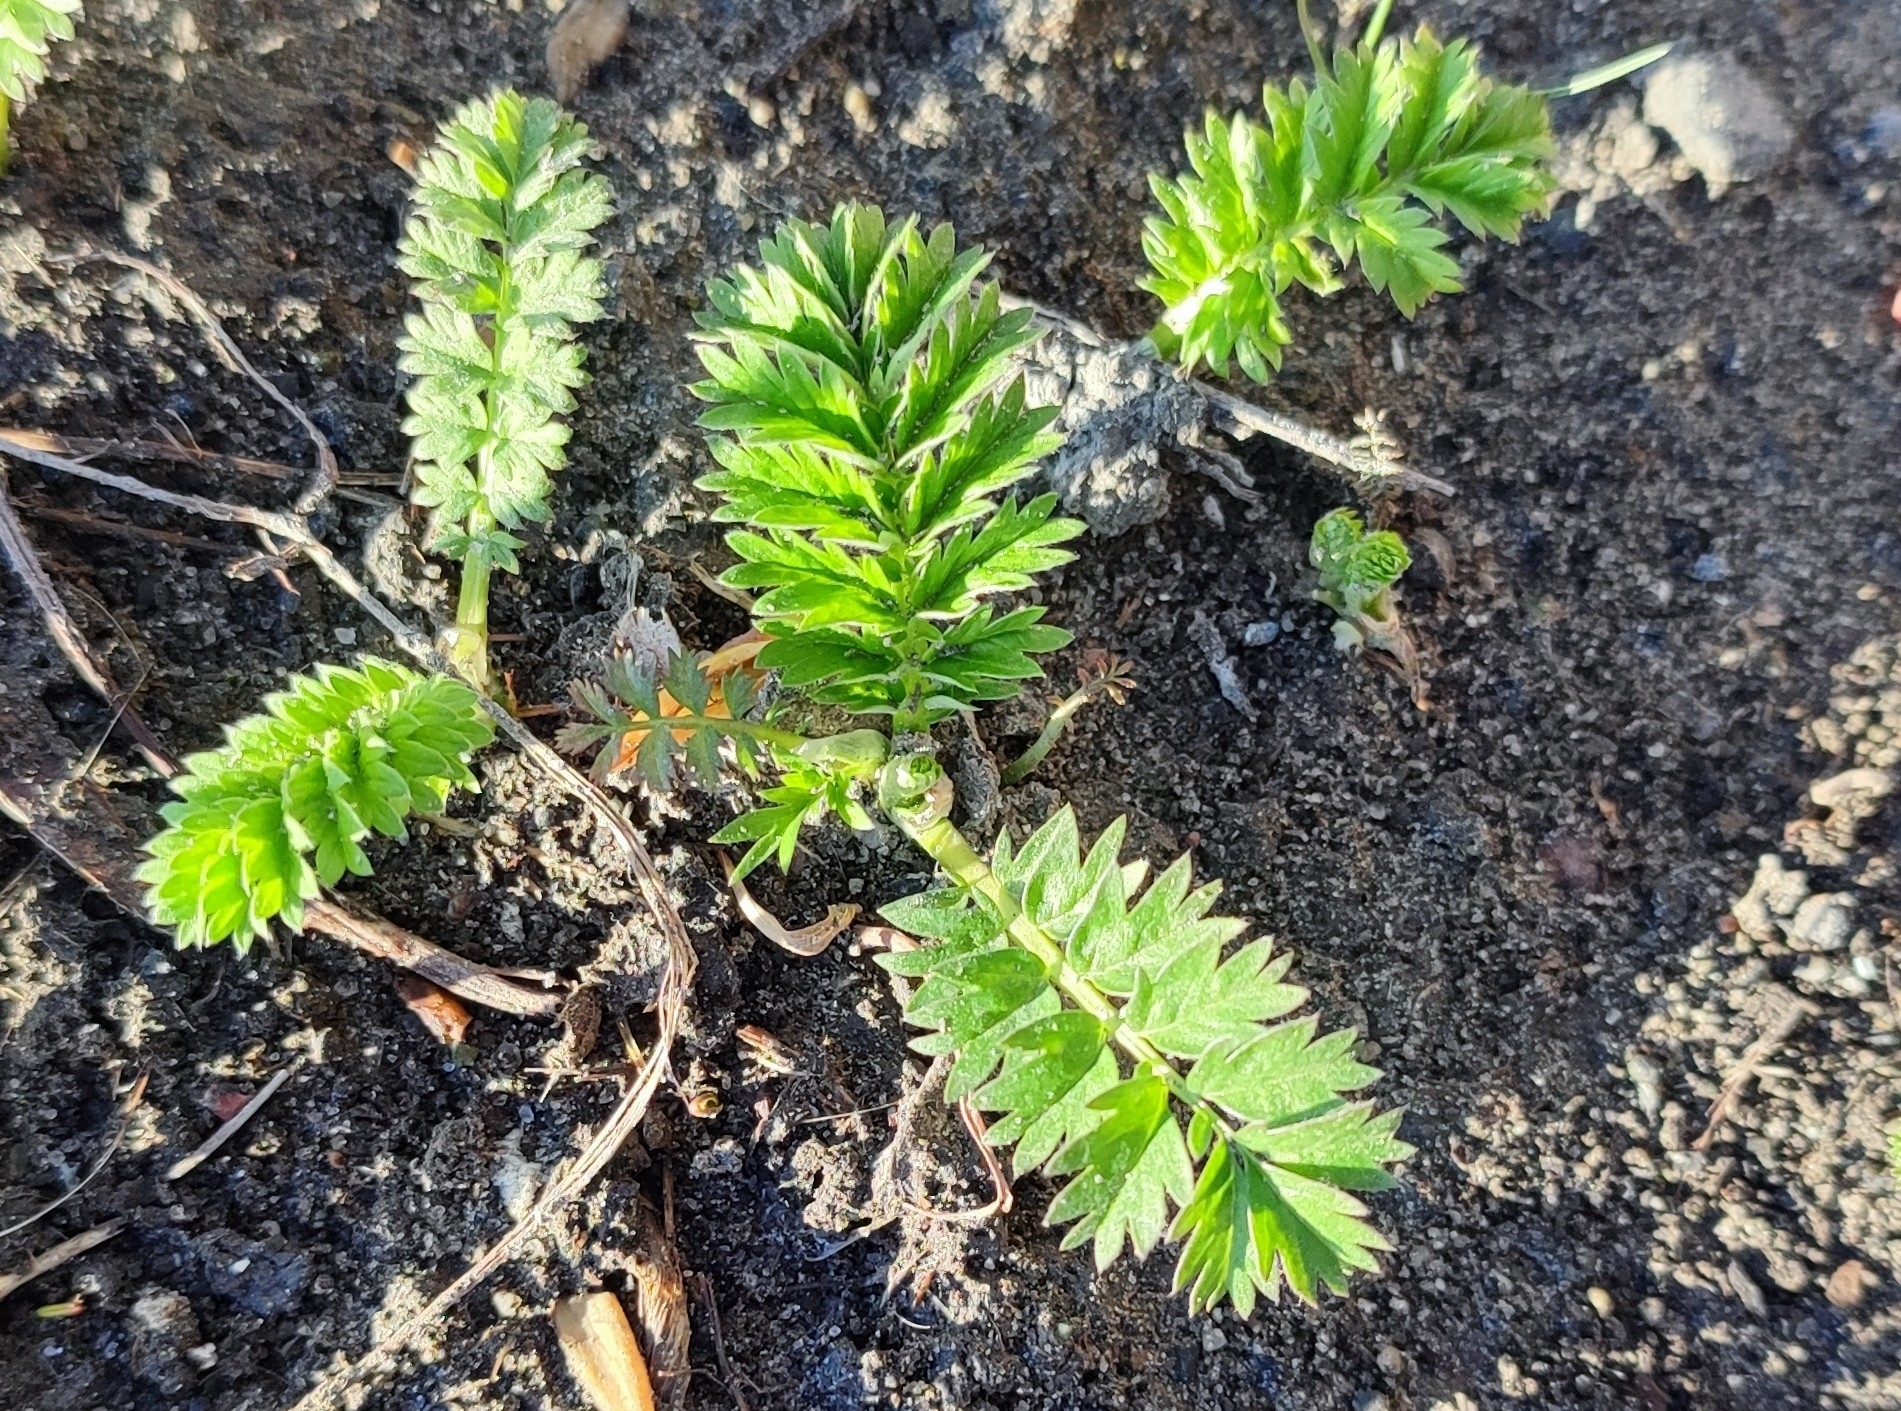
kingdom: Plantae
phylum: Tracheophyta
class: Magnoliopsida
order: Rosales
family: Rosaceae
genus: Potentilla
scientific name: Potentilla supina
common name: Prostrate cinquefoil
